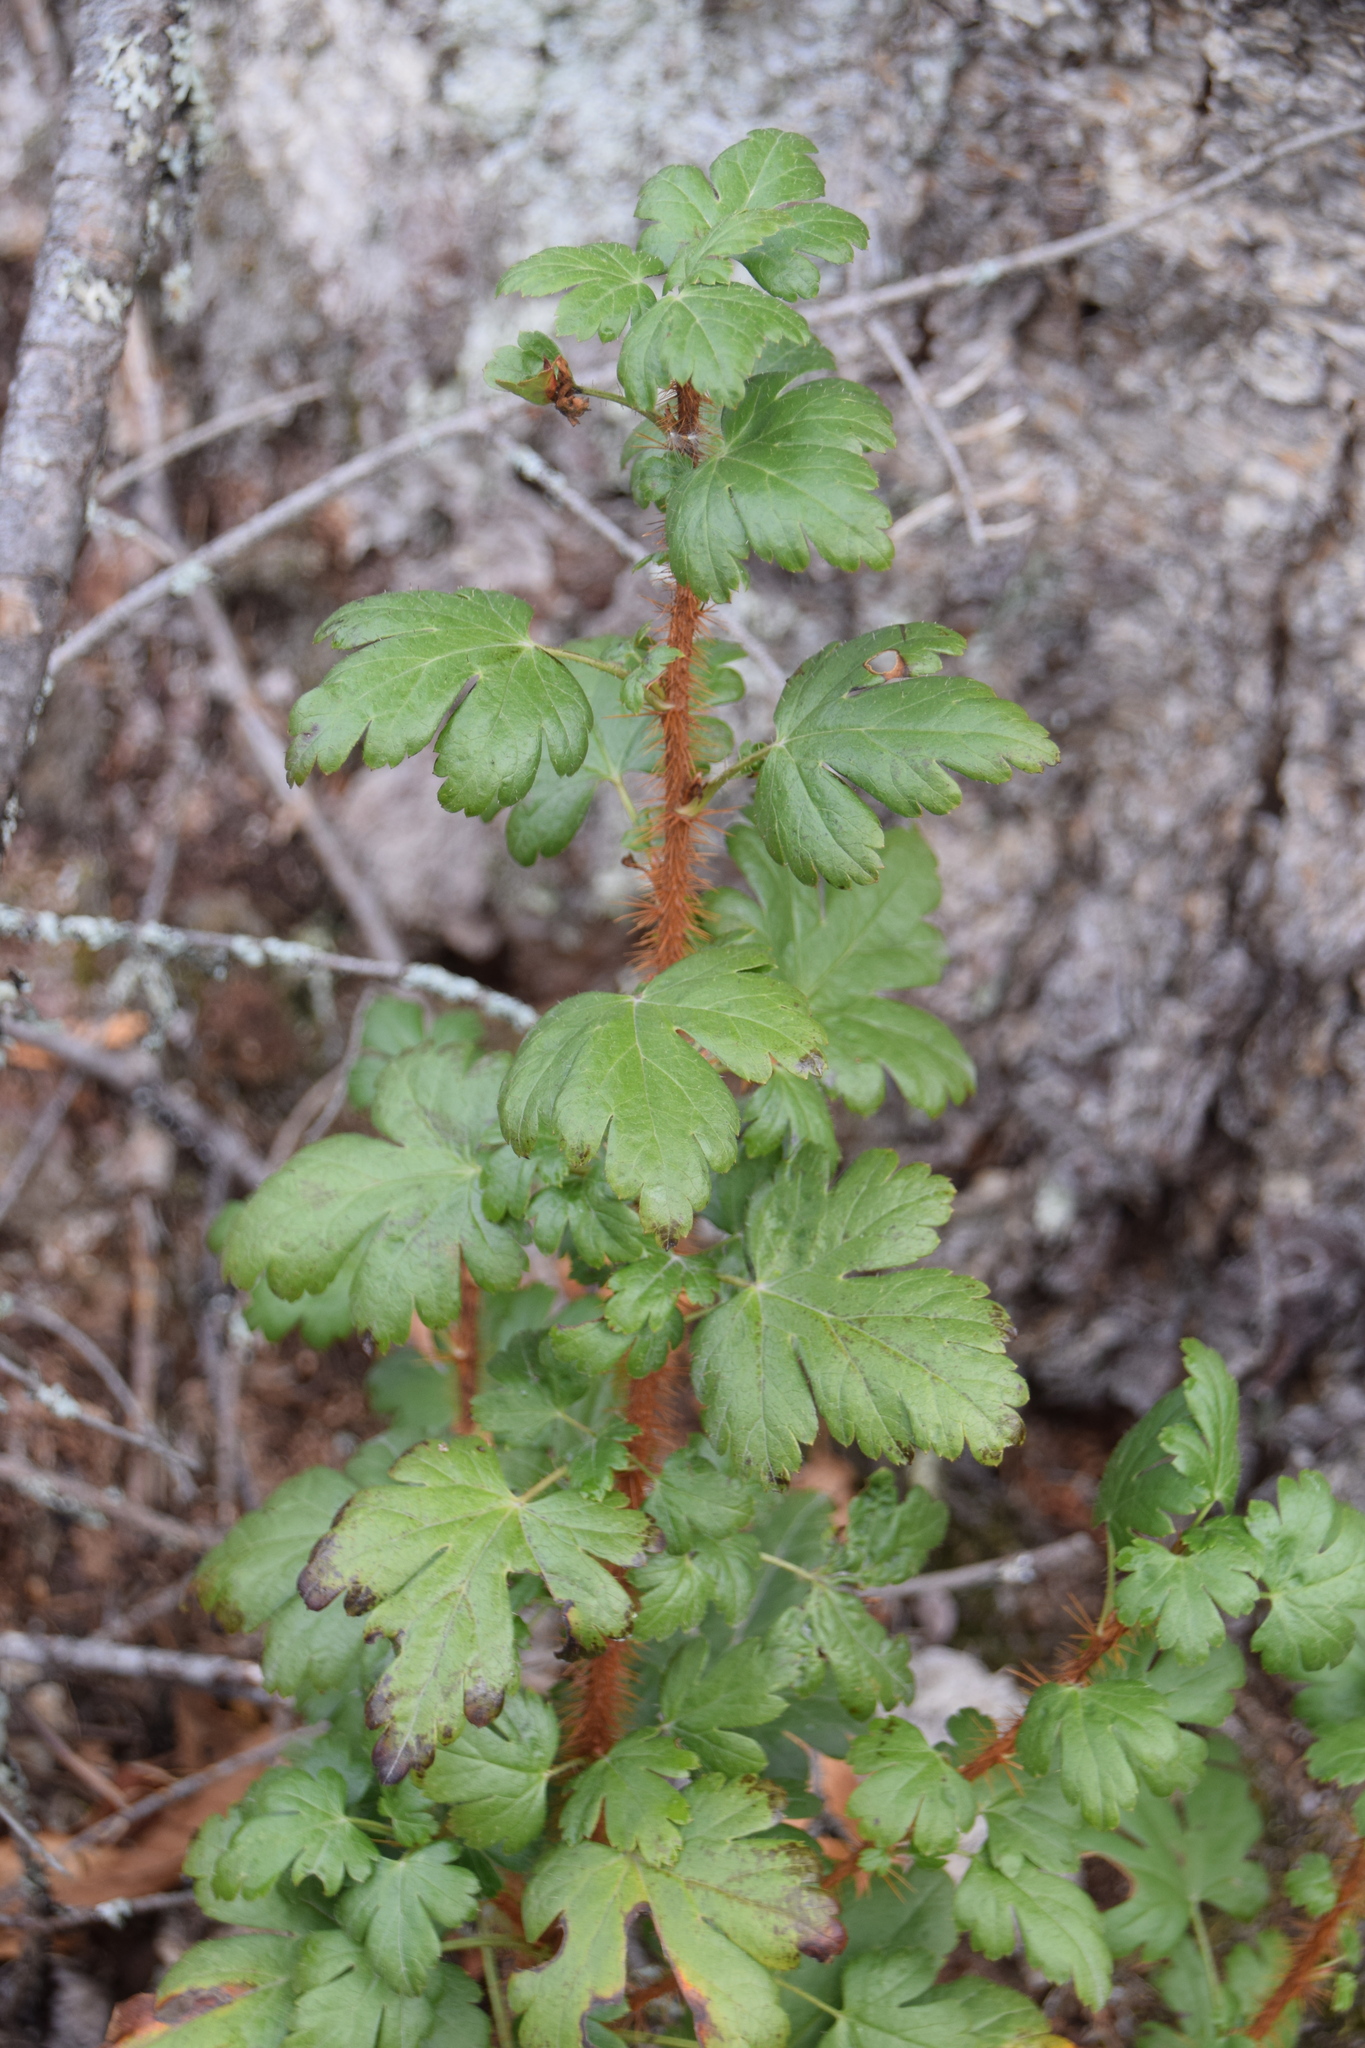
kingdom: Plantae
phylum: Tracheophyta
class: Magnoliopsida
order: Saxifragales
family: Grossulariaceae
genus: Ribes
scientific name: Ribes lacustre
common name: Black gooseberry
